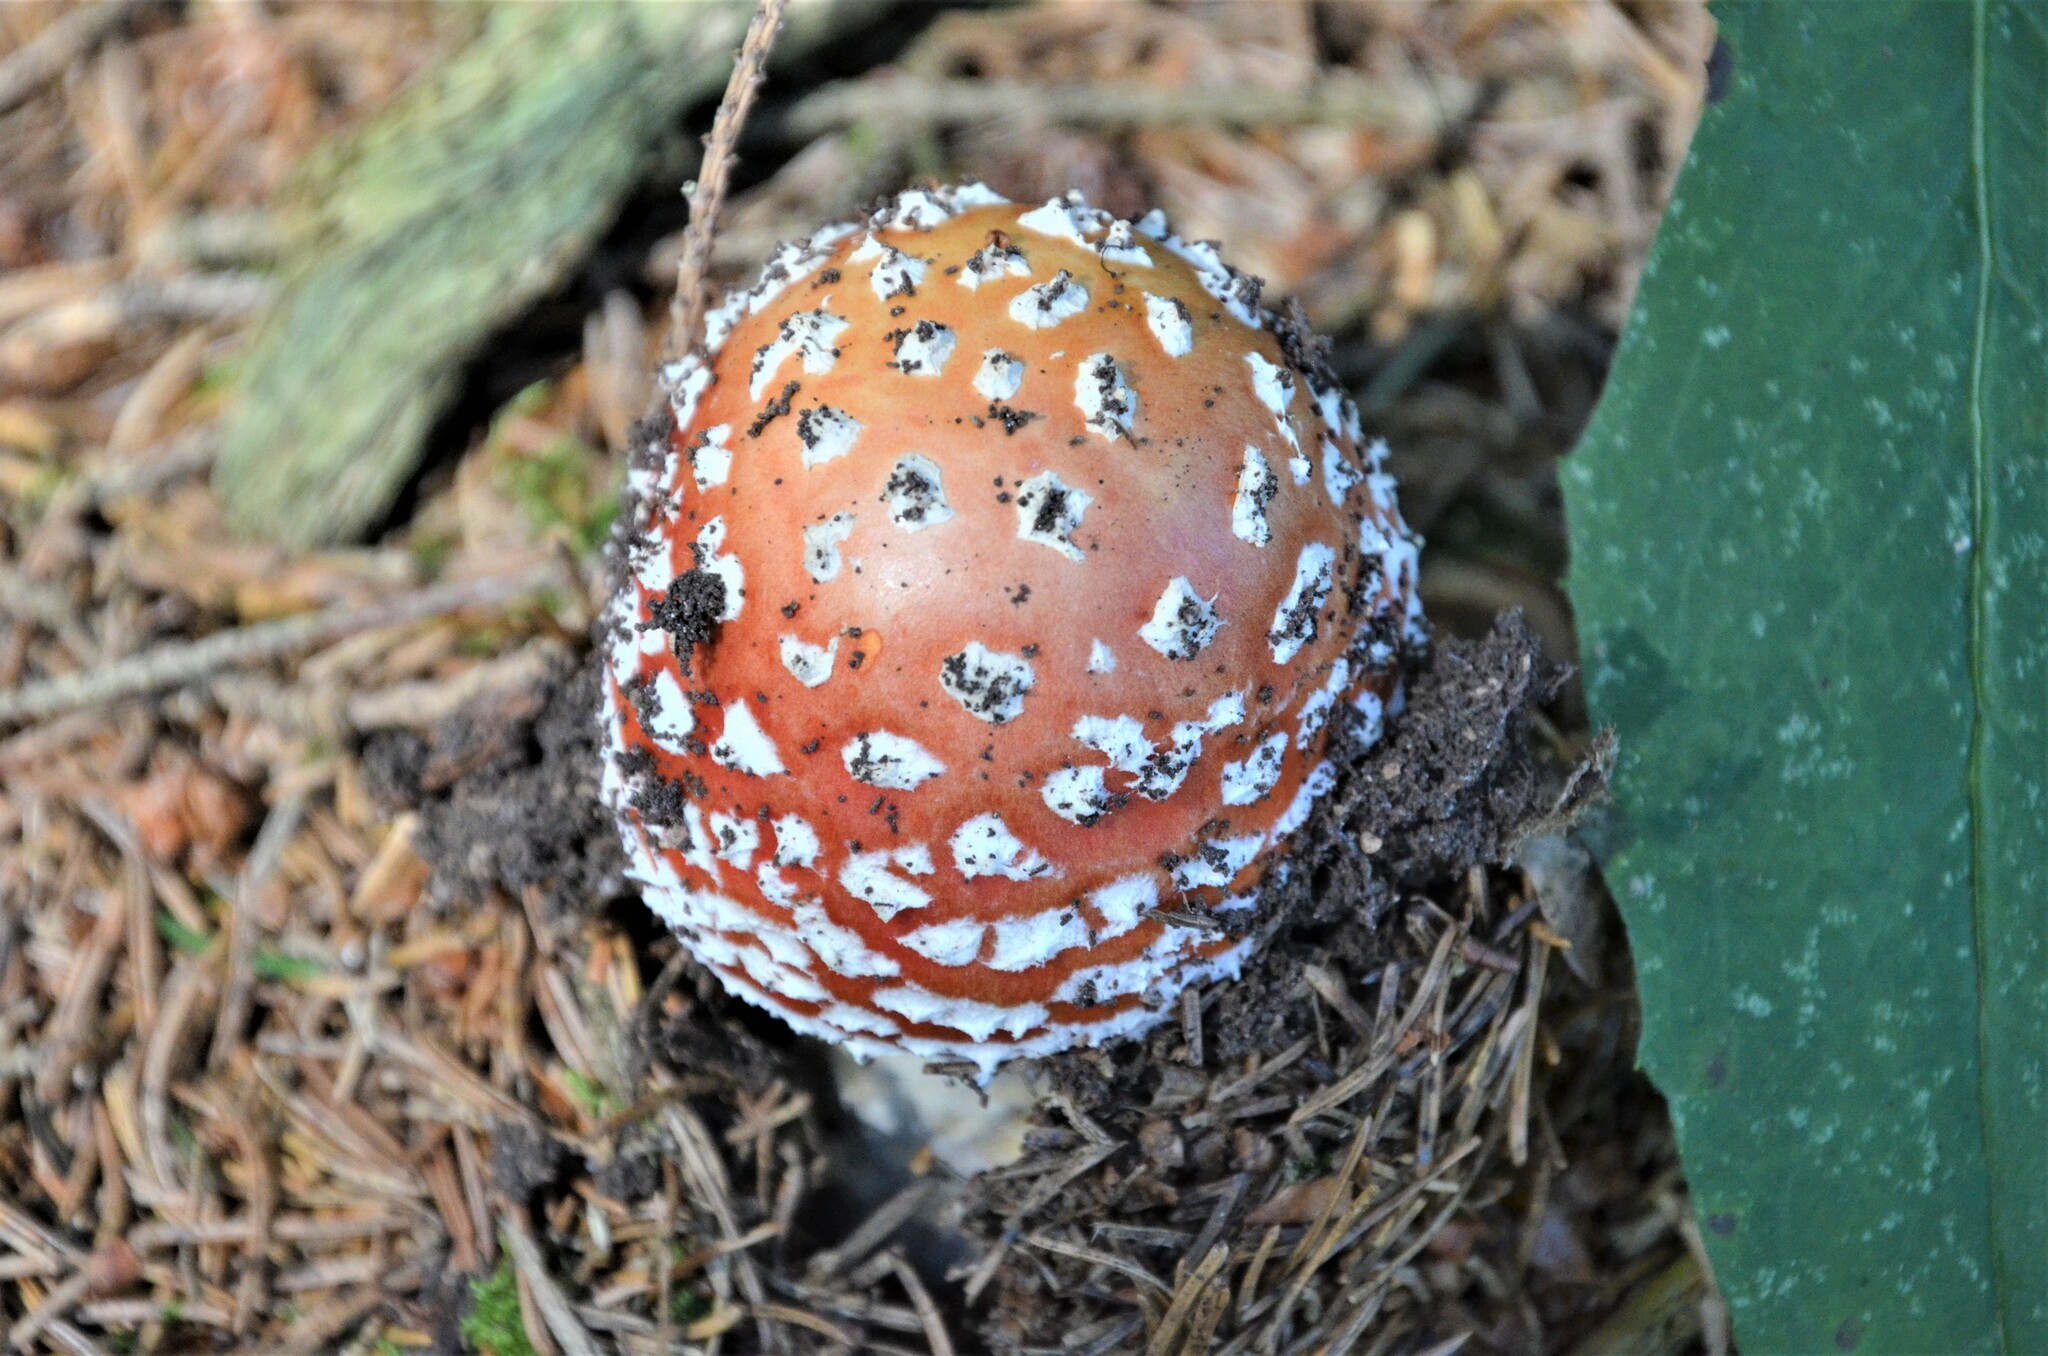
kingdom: Fungi
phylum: Basidiomycota
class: Agaricomycetes
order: Agaricales
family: Amanitaceae
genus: Amanita
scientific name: Amanita muscaria
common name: Fly agaric
